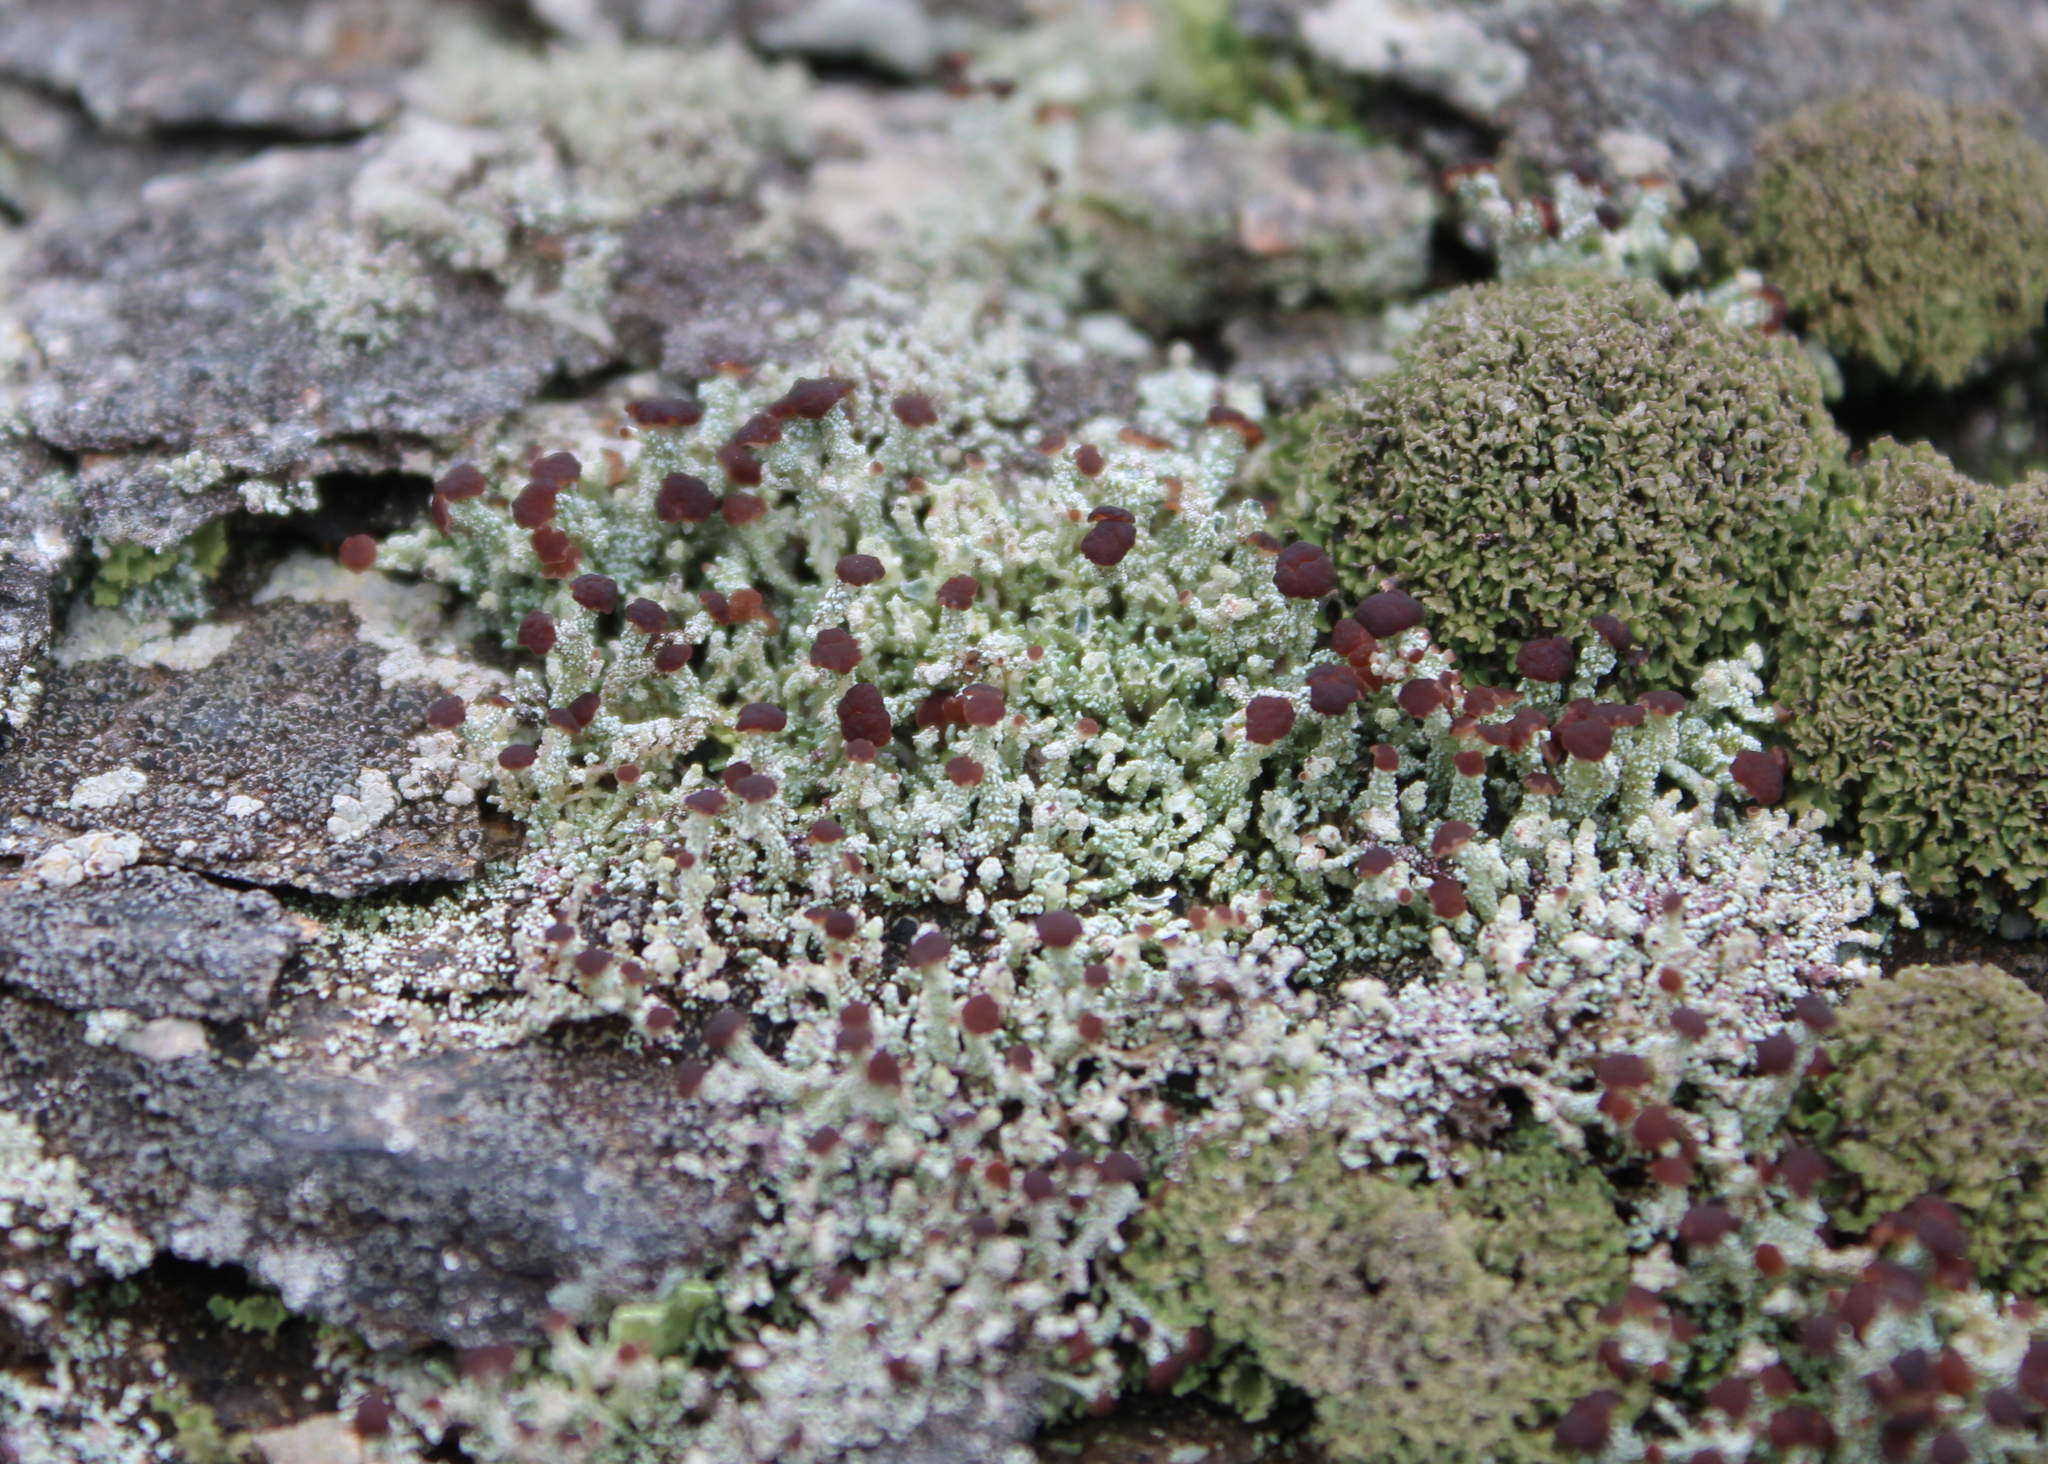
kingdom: Fungi
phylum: Ascomycota
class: Lecanoromycetes
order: Lecanorales
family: Cladoniaceae
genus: Cladonia
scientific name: Cladonia parasitica
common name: Fence-rail clad lichen
